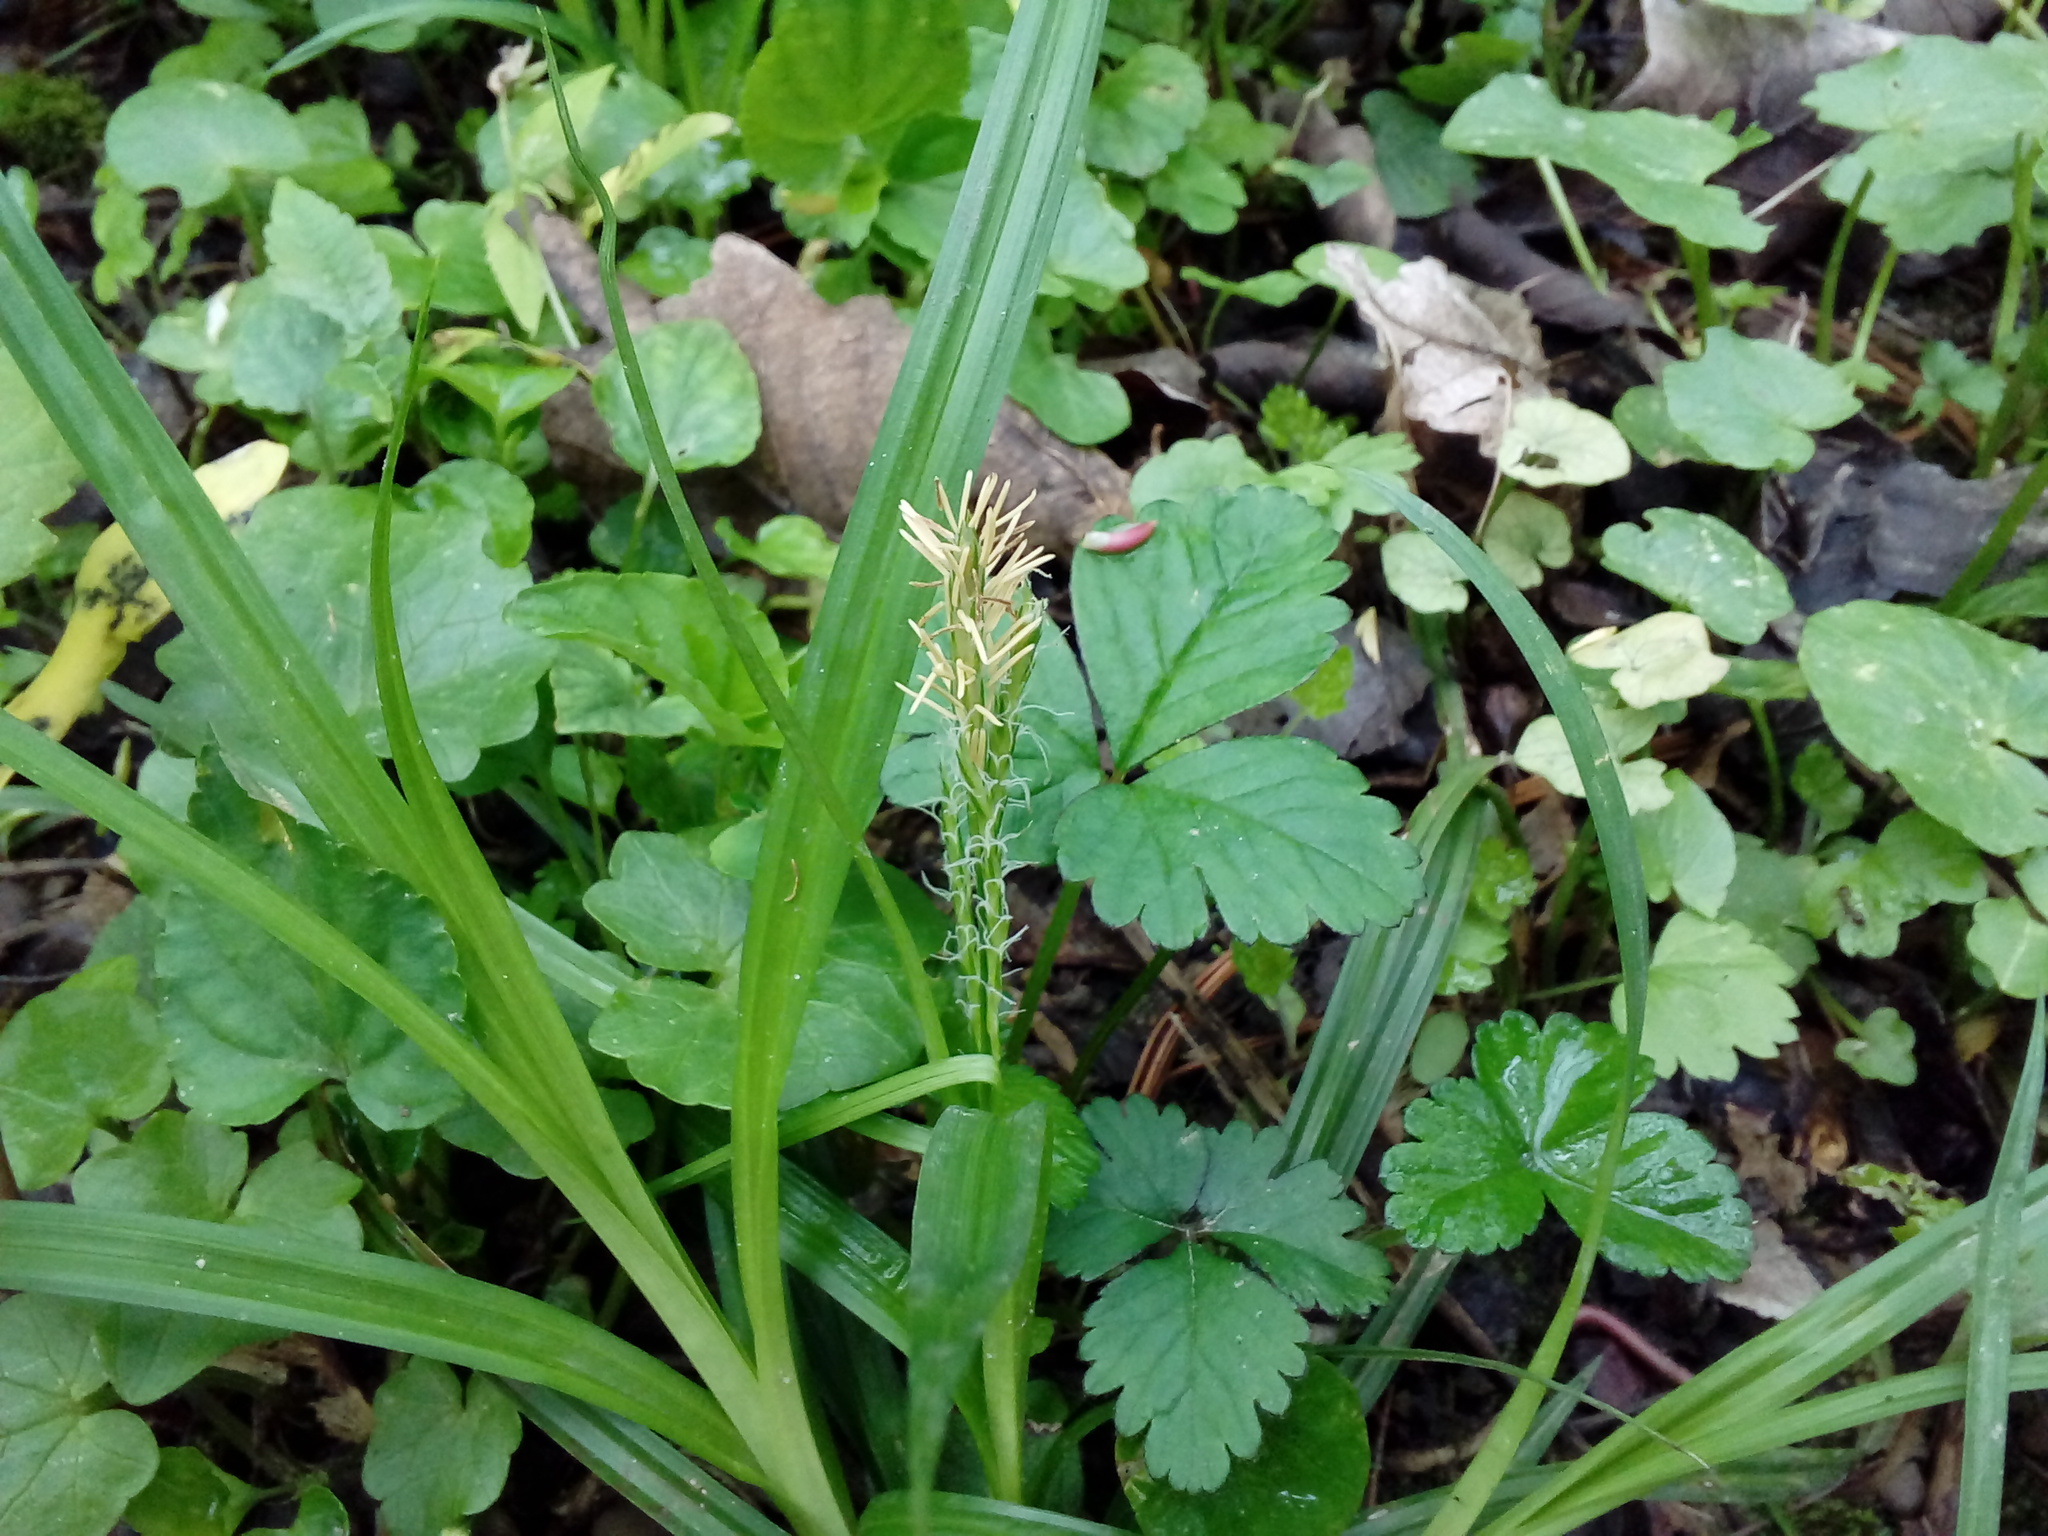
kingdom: Plantae
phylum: Tracheophyta
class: Liliopsida
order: Poales
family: Cyperaceae
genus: Carex
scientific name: Carex sylvatica
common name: Wood-sedge
